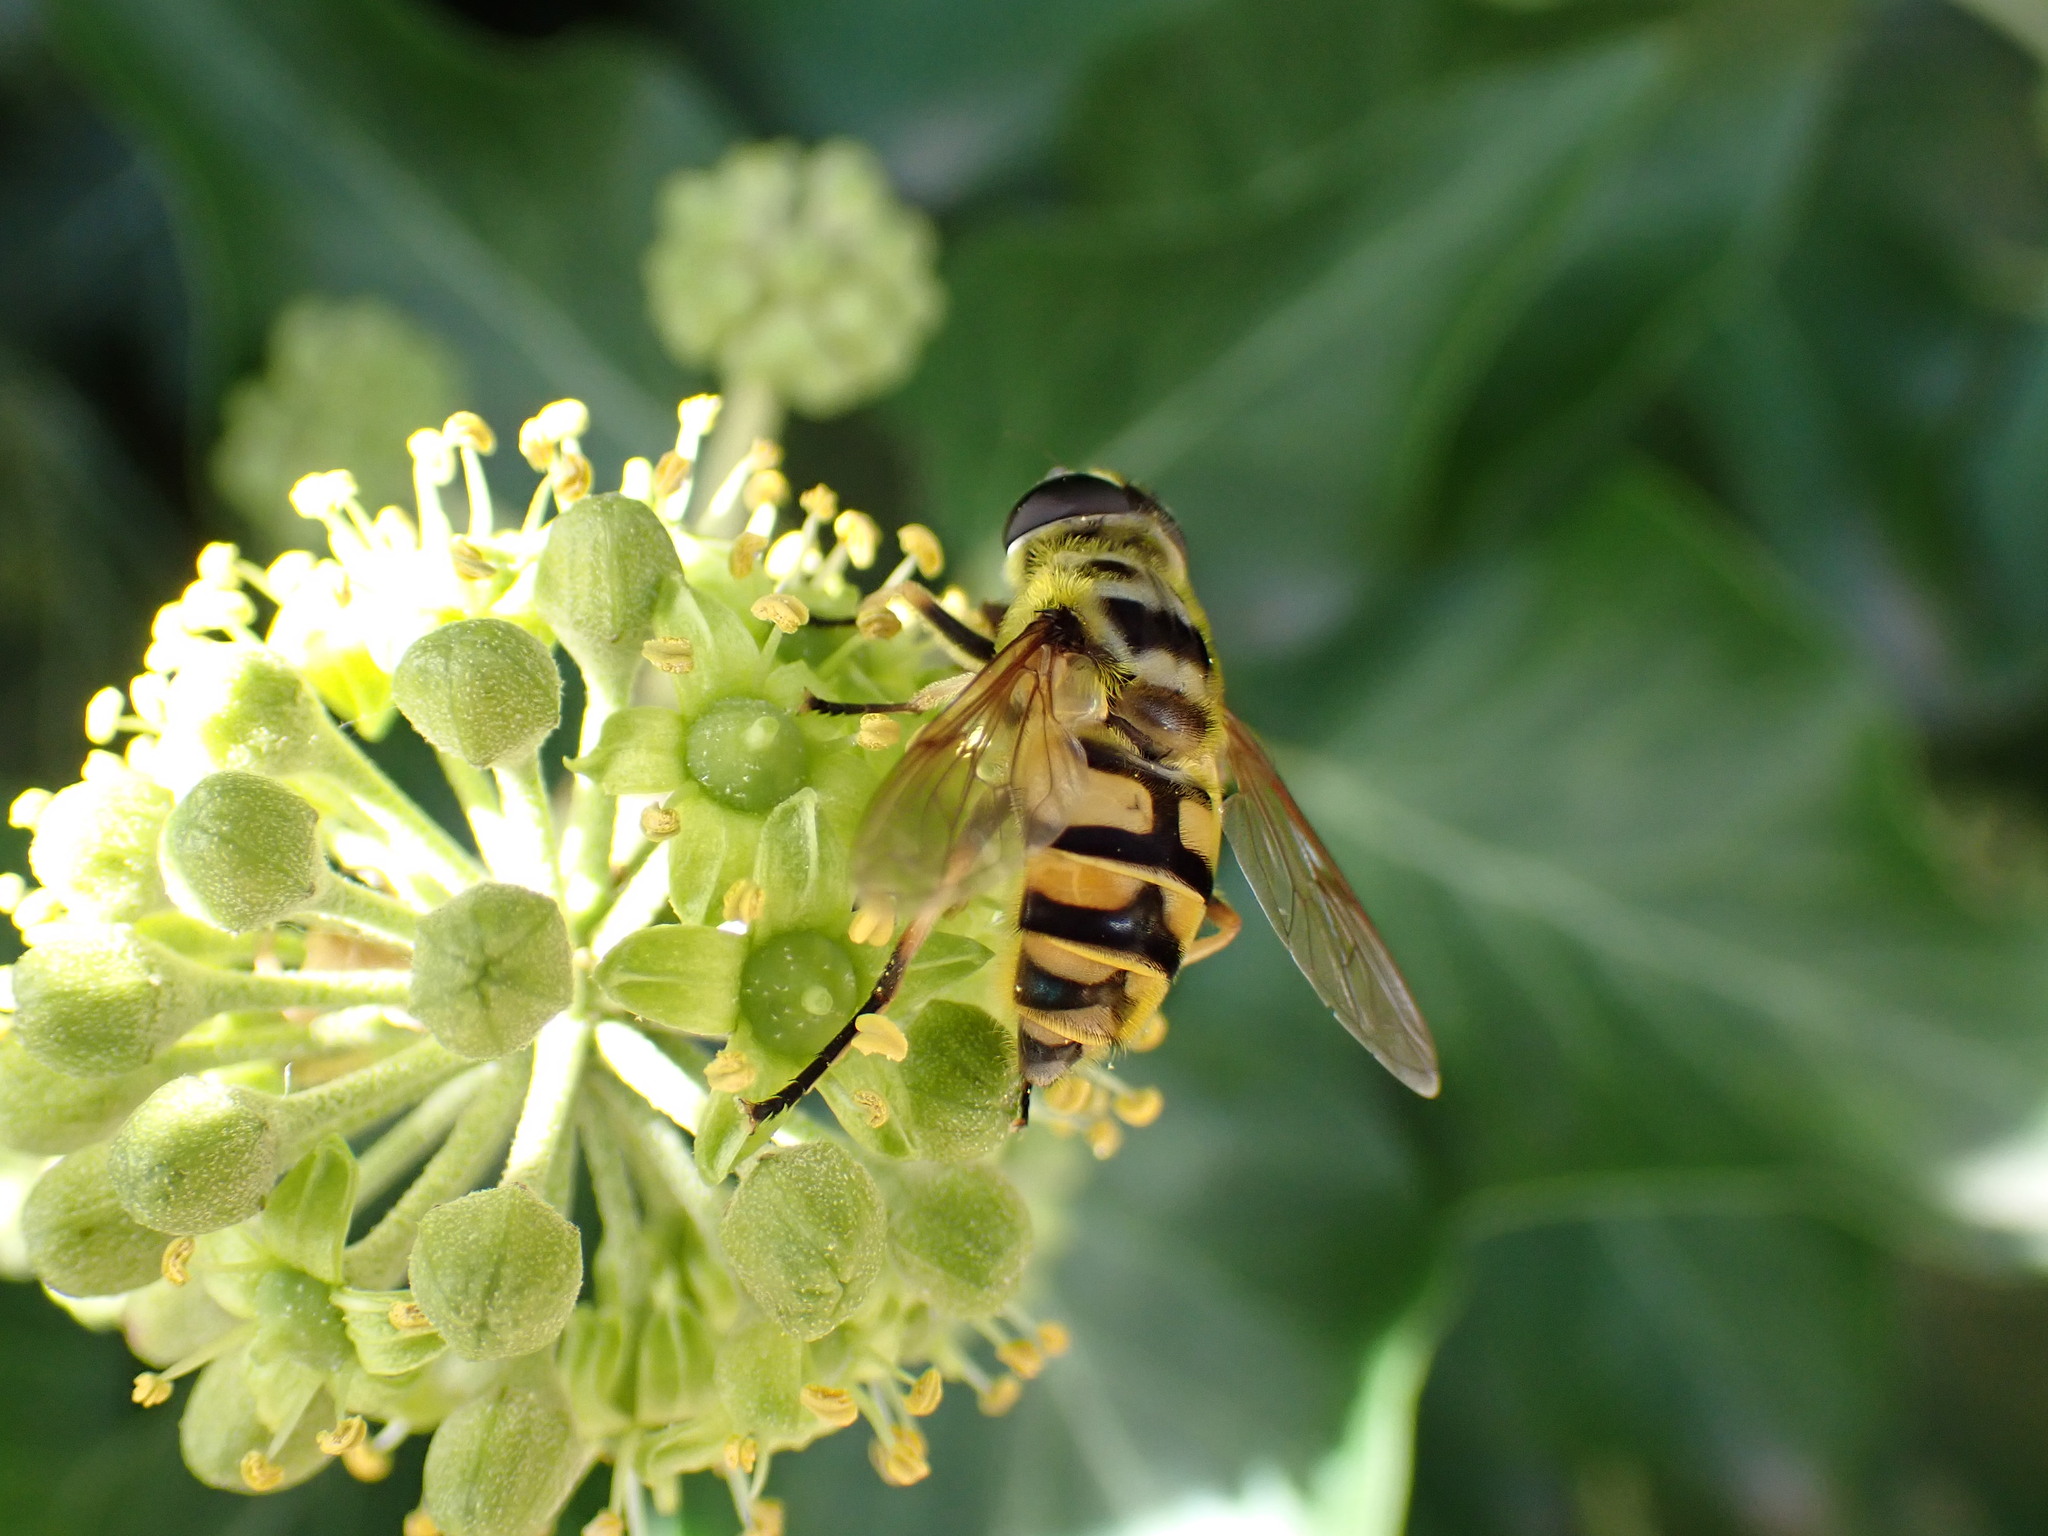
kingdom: Animalia
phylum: Arthropoda
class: Insecta
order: Diptera
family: Syrphidae
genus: Myathropa
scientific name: Myathropa florea
